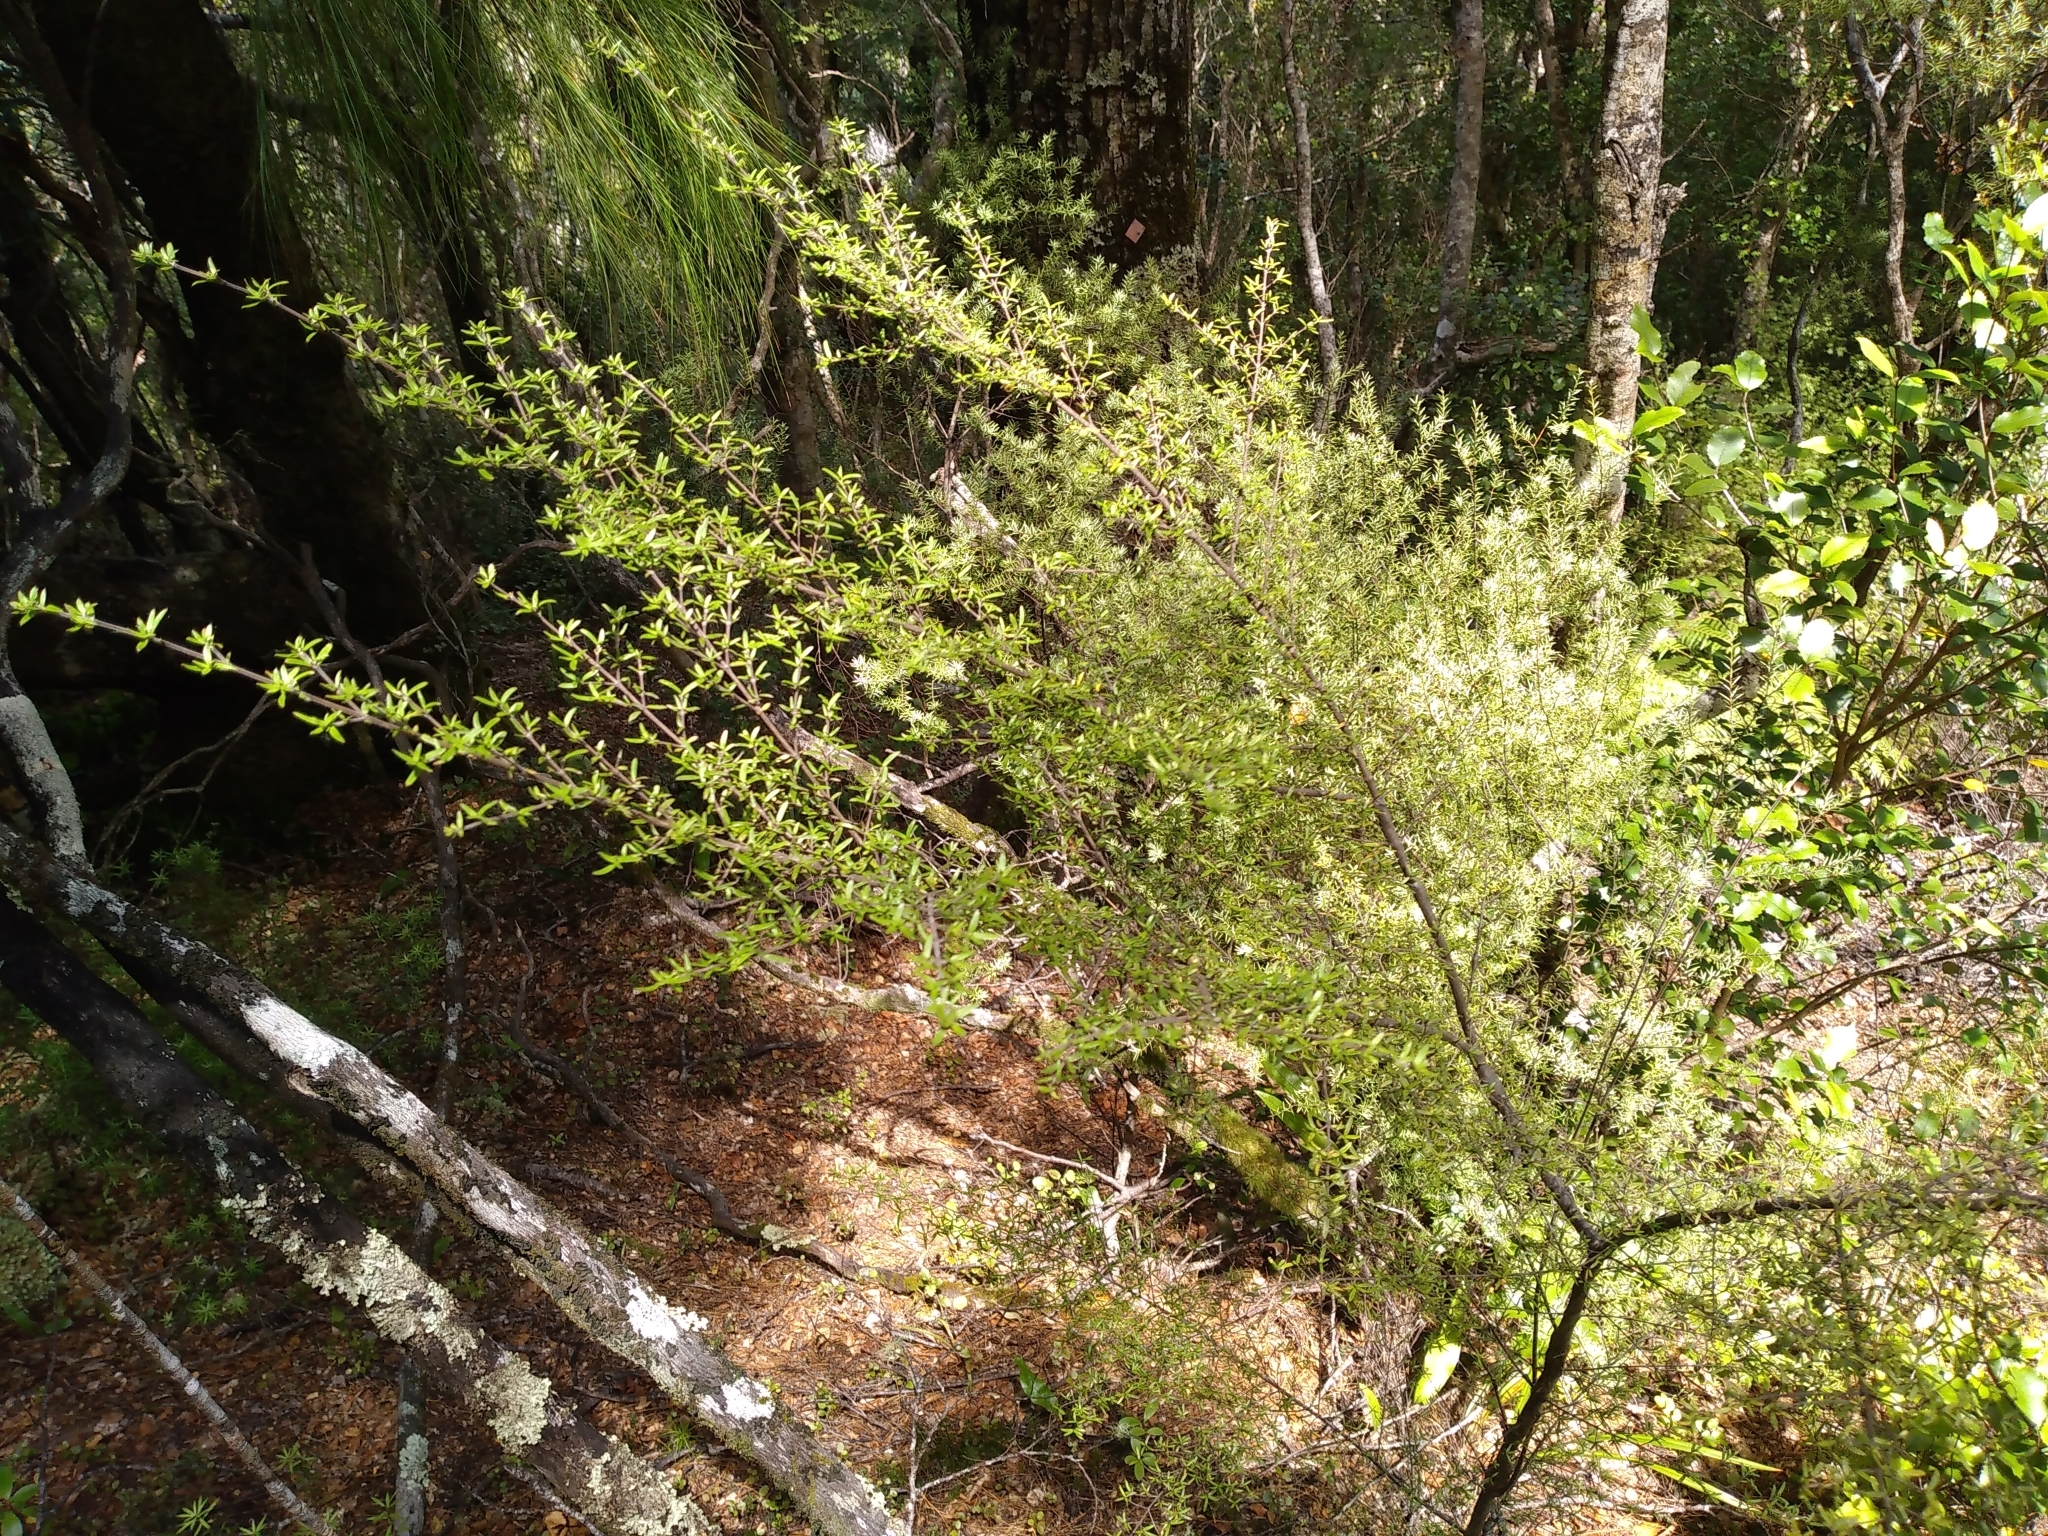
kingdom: Plantae
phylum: Tracheophyta
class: Magnoliopsida
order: Gentianales
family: Rubiaceae
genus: Coprosma
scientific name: Coprosma microcarpa
